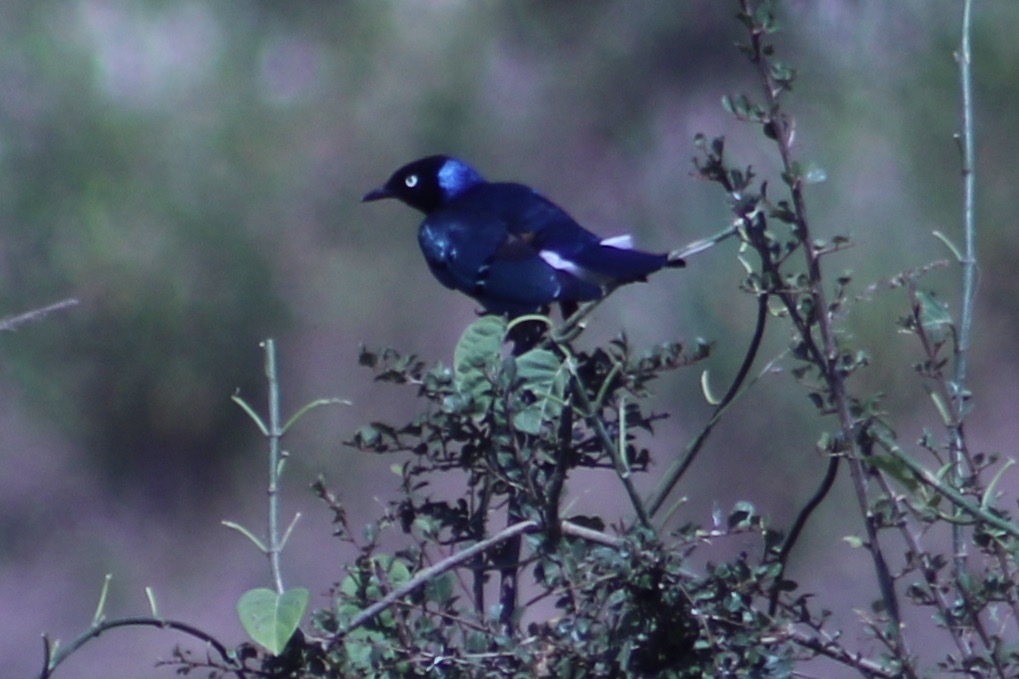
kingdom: Animalia
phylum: Chordata
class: Aves
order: Passeriformes
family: Sturnidae
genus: Lamprotornis
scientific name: Lamprotornis superbus
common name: Superb starling
